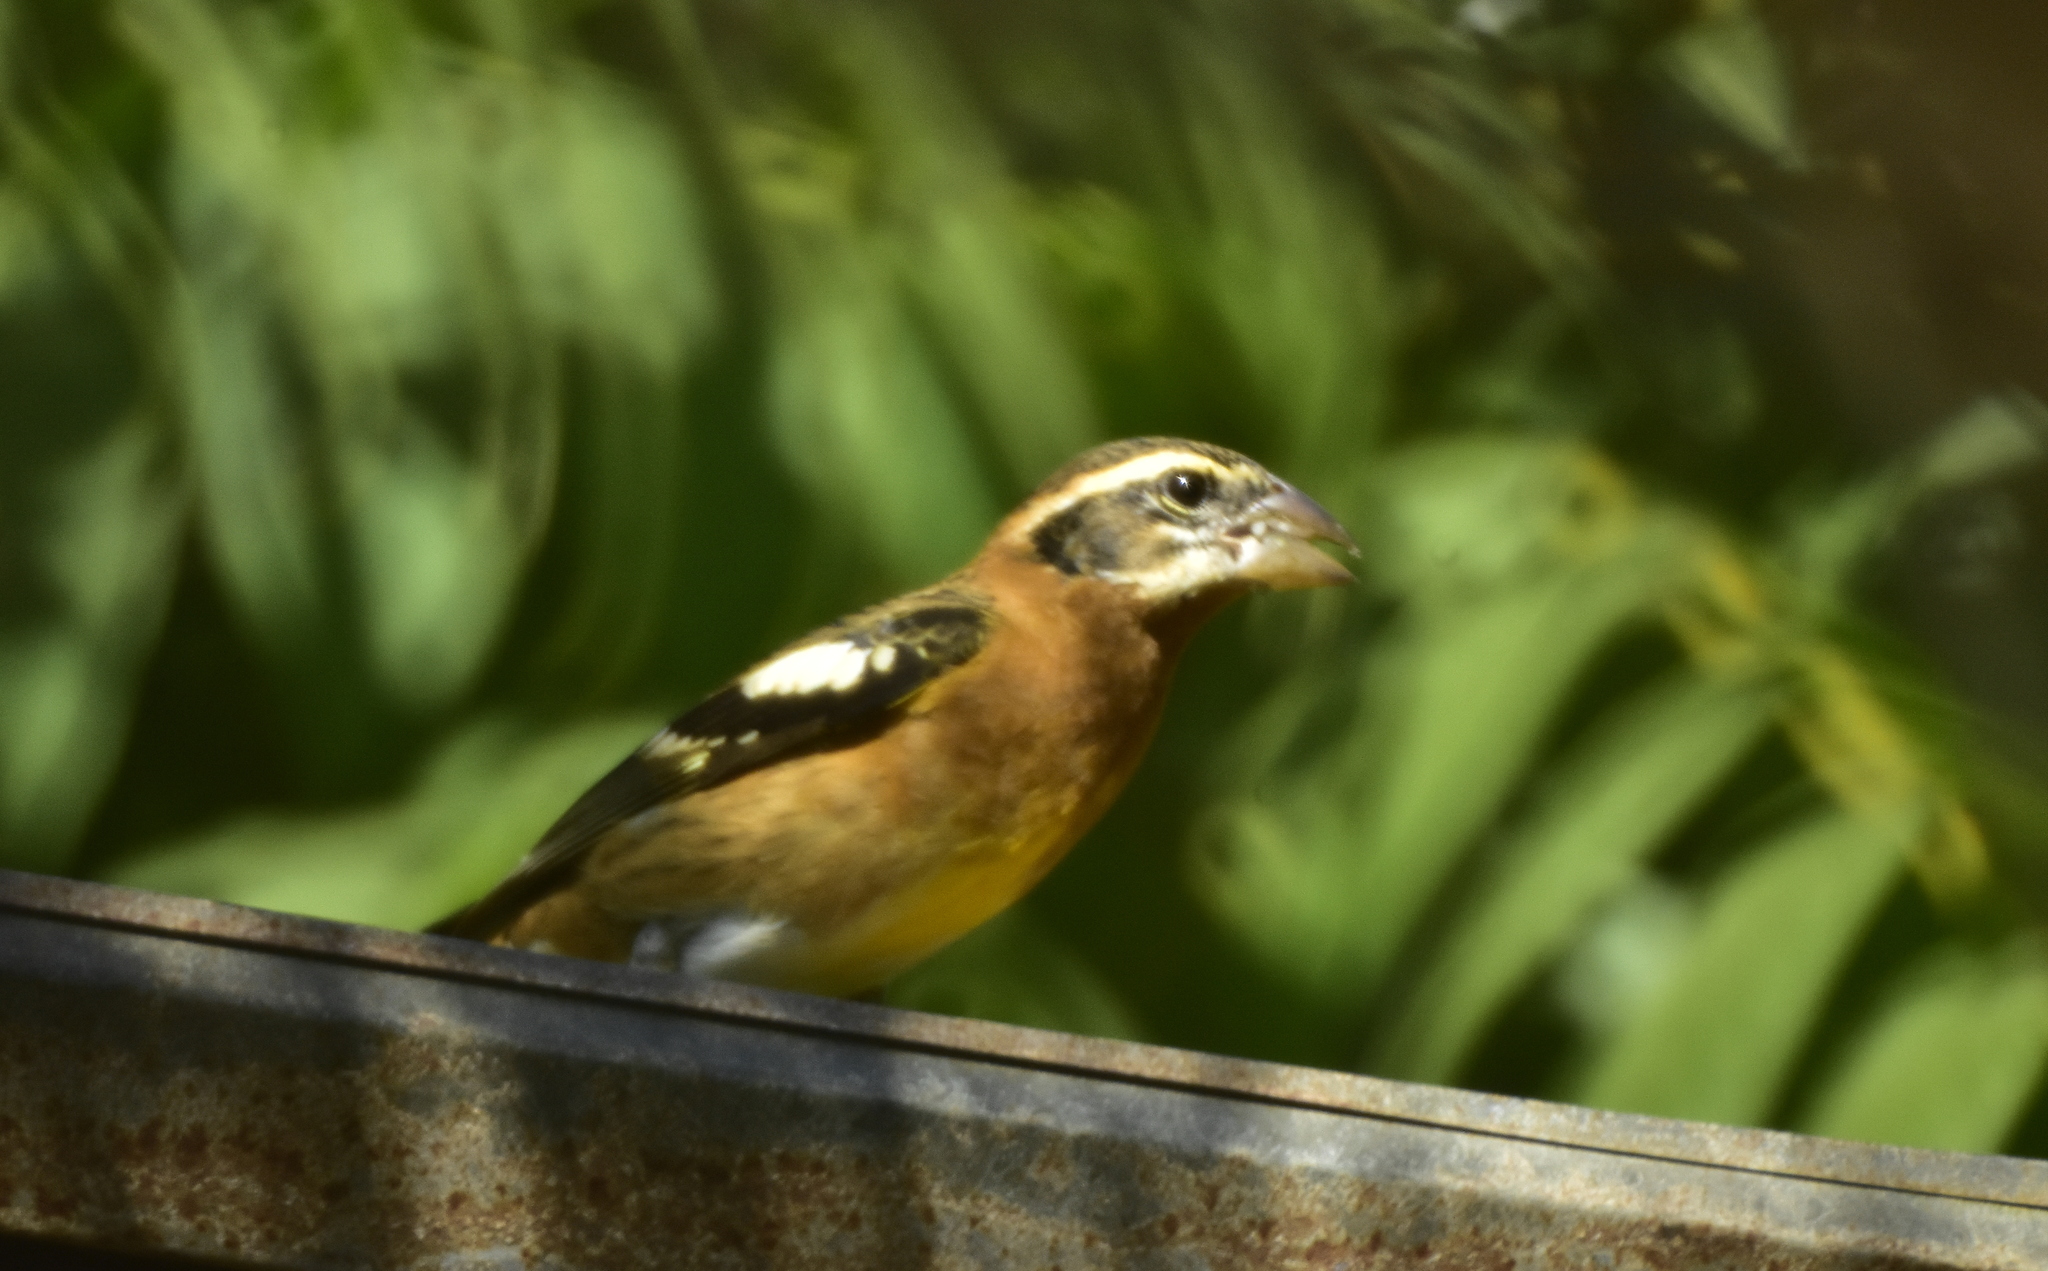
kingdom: Animalia
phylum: Chordata
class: Aves
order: Passeriformes
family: Cardinalidae
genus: Pheucticus
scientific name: Pheucticus melanocephalus
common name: Black-headed grosbeak
